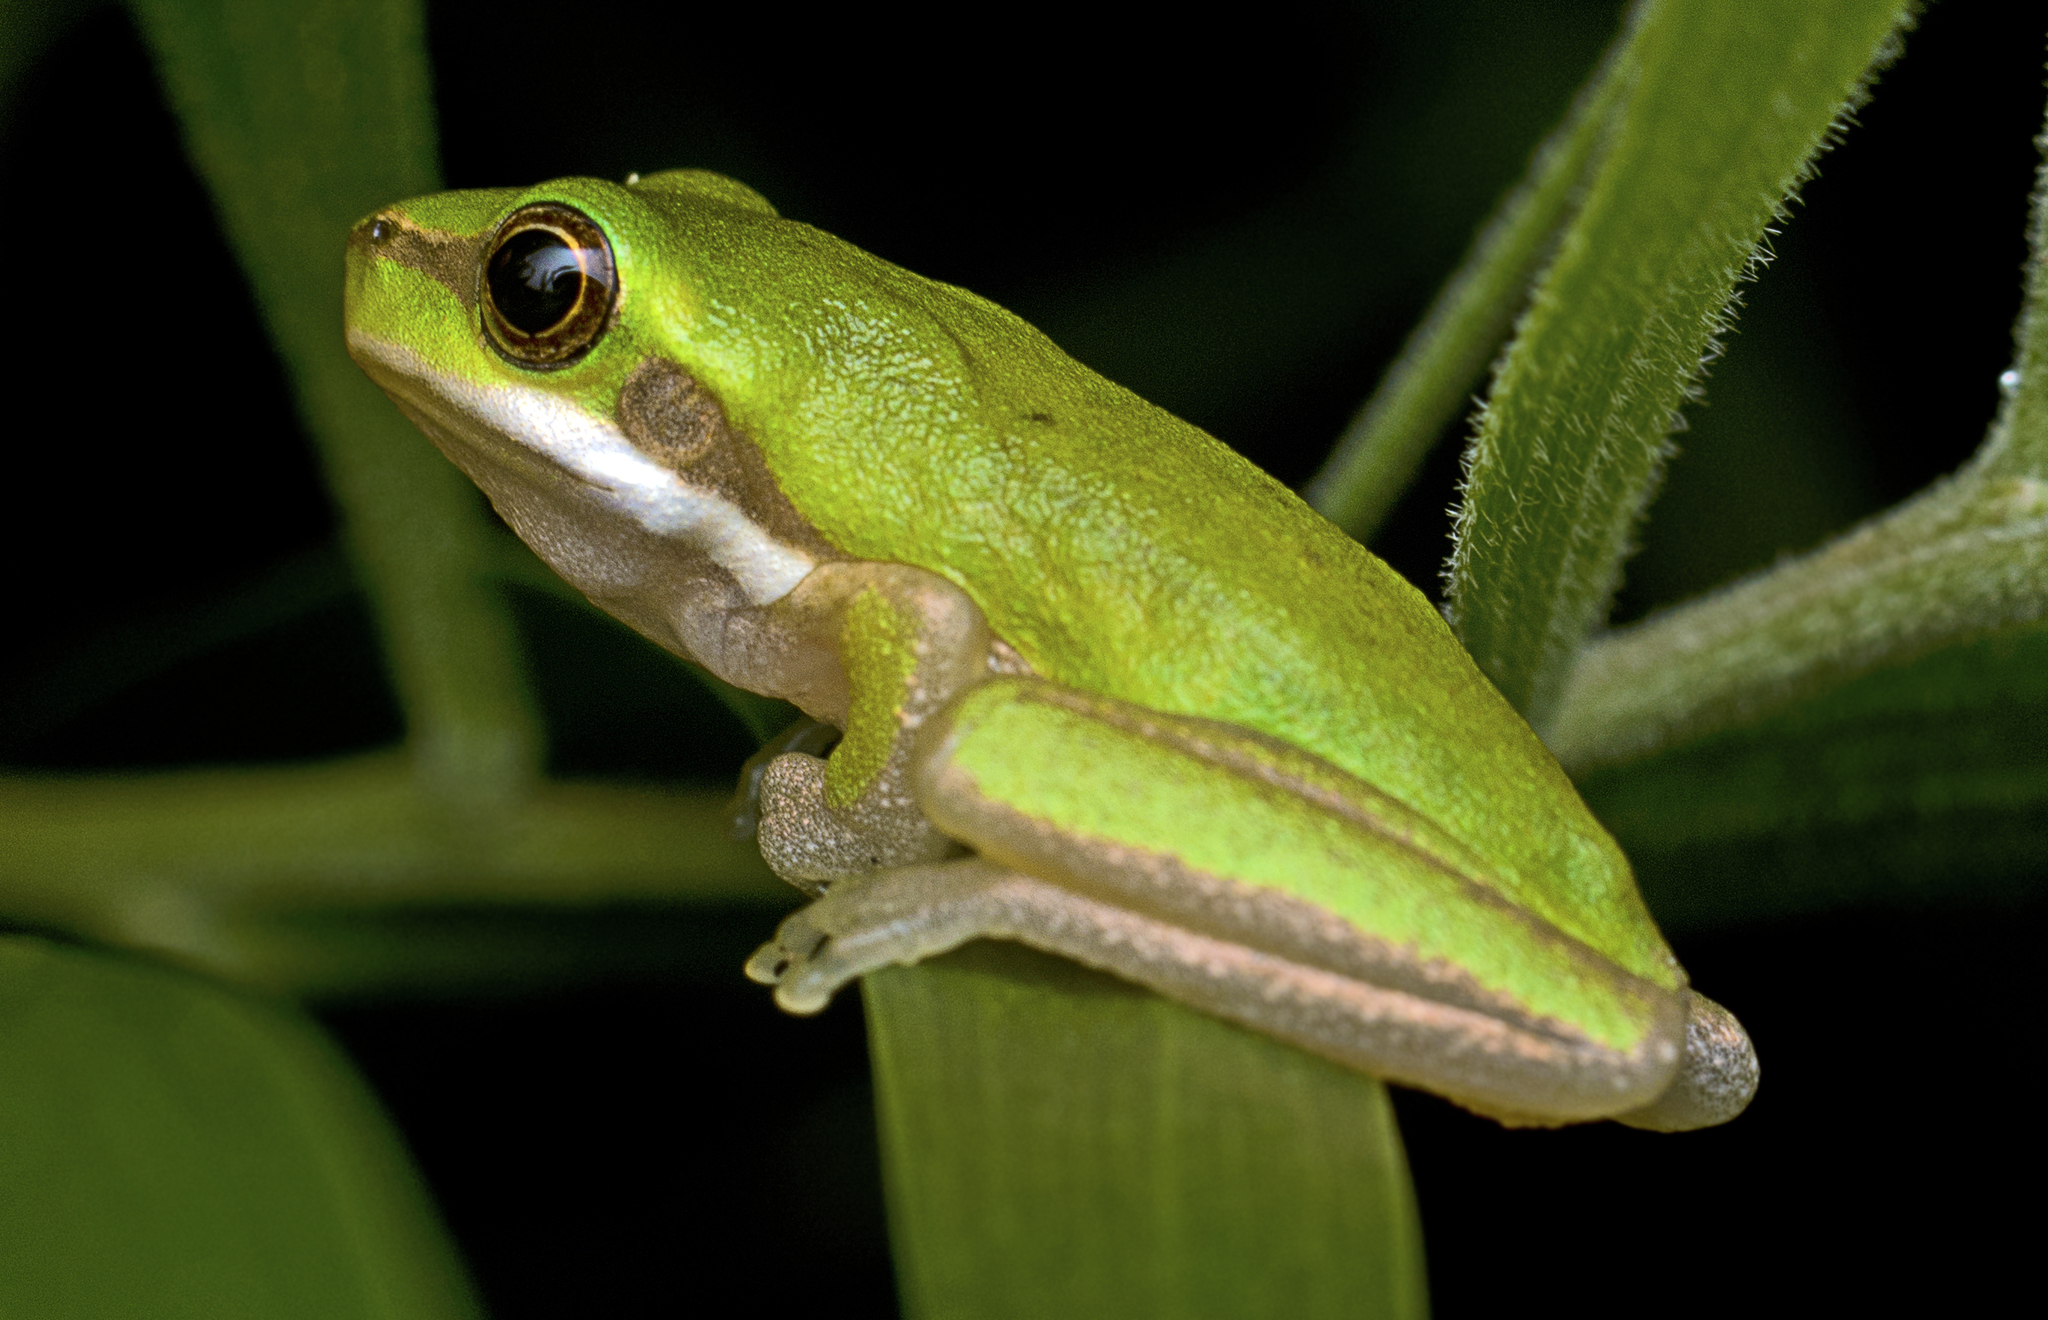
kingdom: Animalia
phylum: Chordata
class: Amphibia
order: Anura
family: Pelodryadidae
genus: Litoria
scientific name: Litoria fallax
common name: Eastern dwarf treefrog
